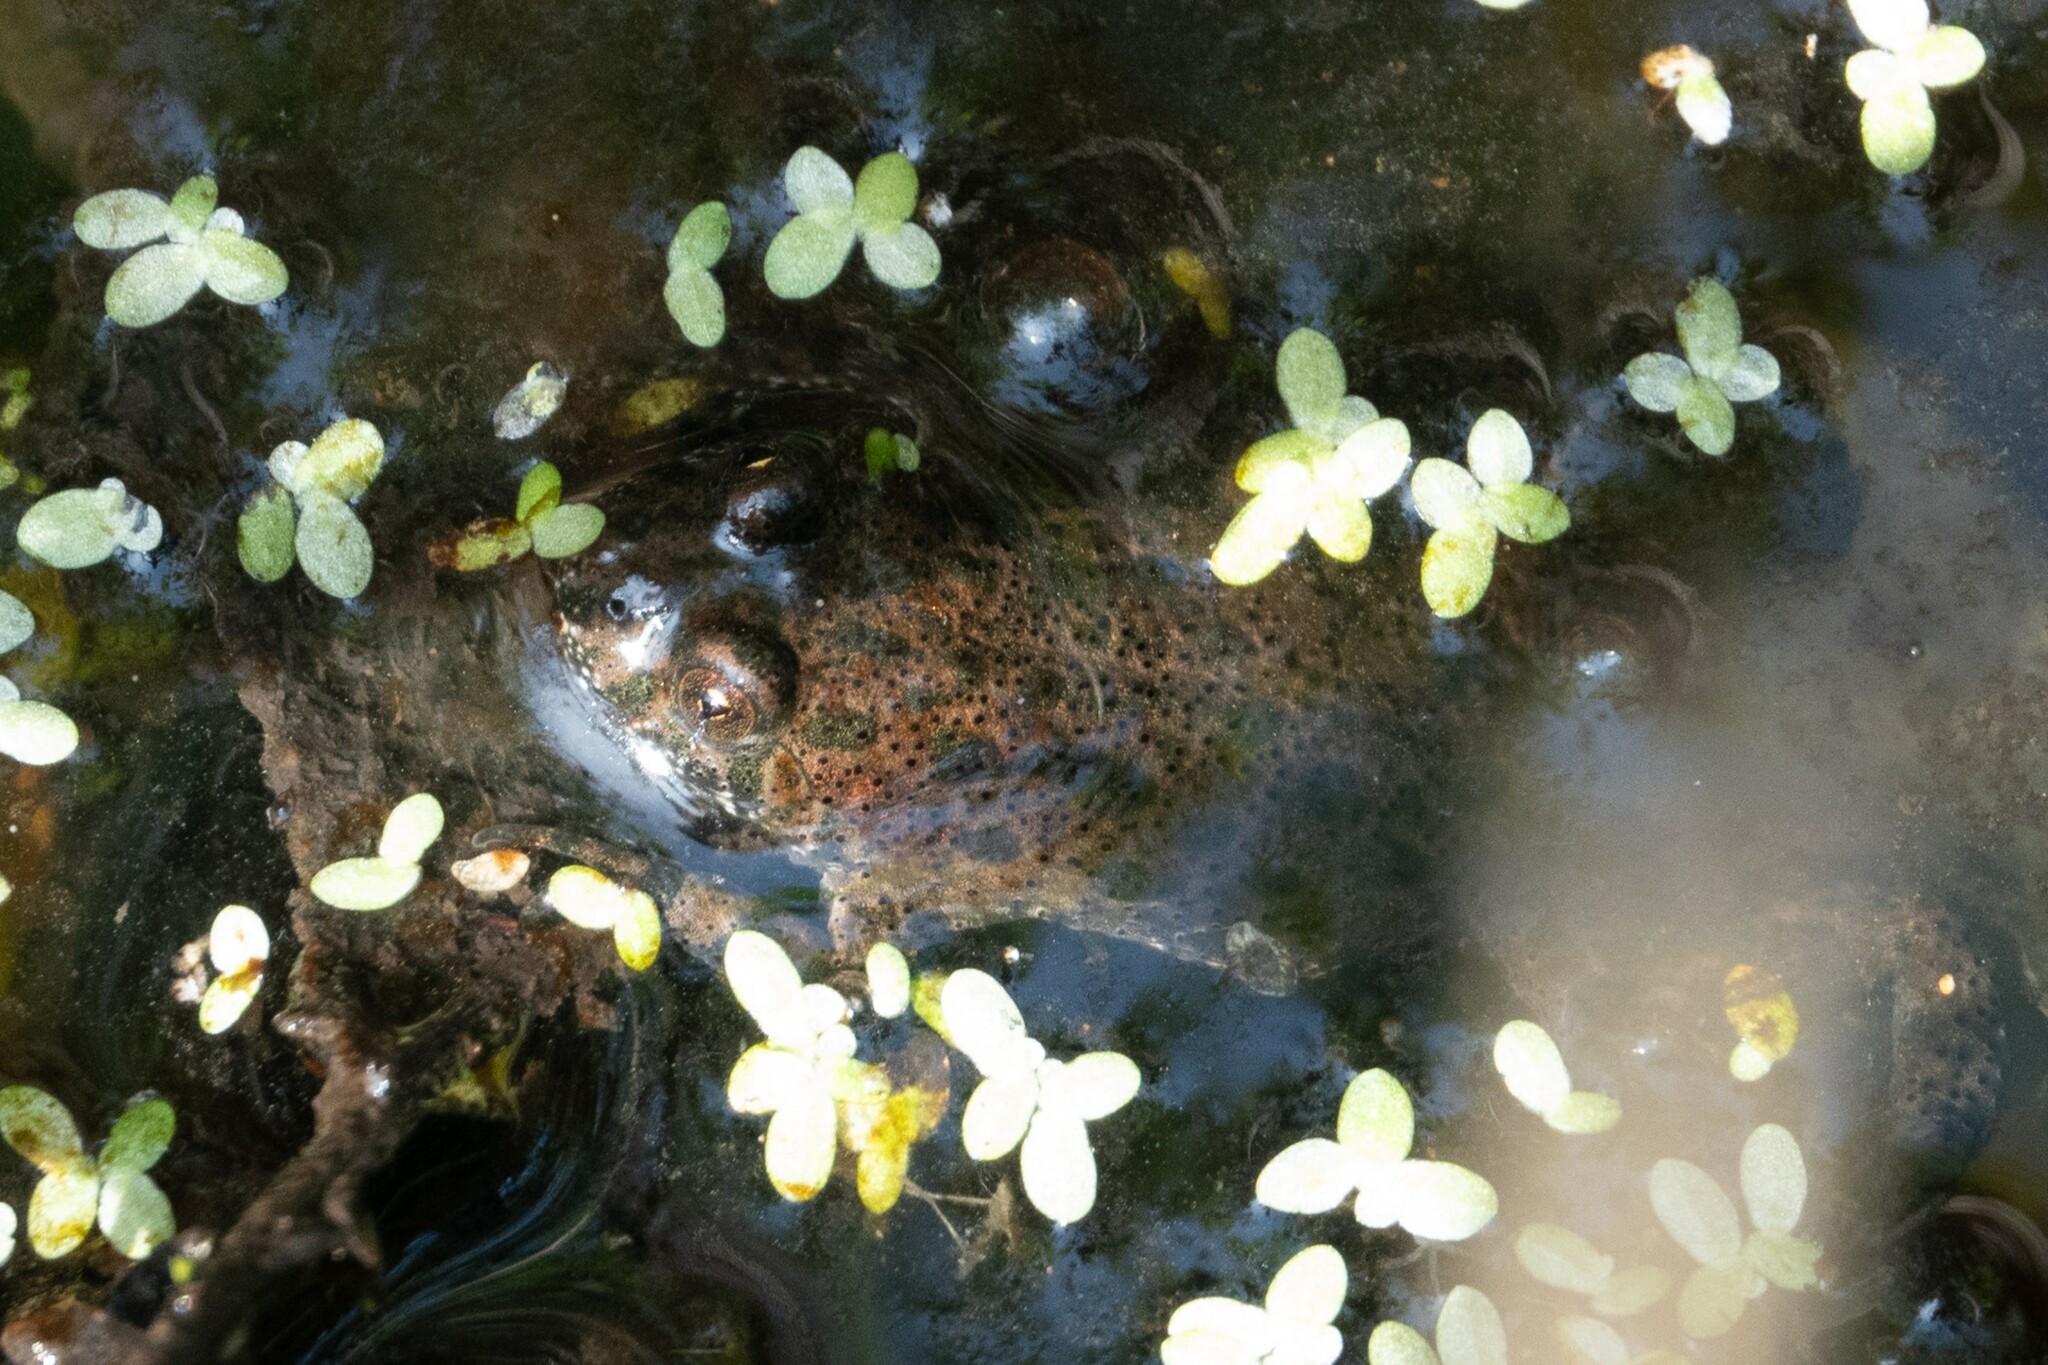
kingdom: Animalia
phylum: Chordata
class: Amphibia
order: Anura
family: Bombinatoridae
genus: Bombina
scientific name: Bombina bombina
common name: Fire-bellied toad
